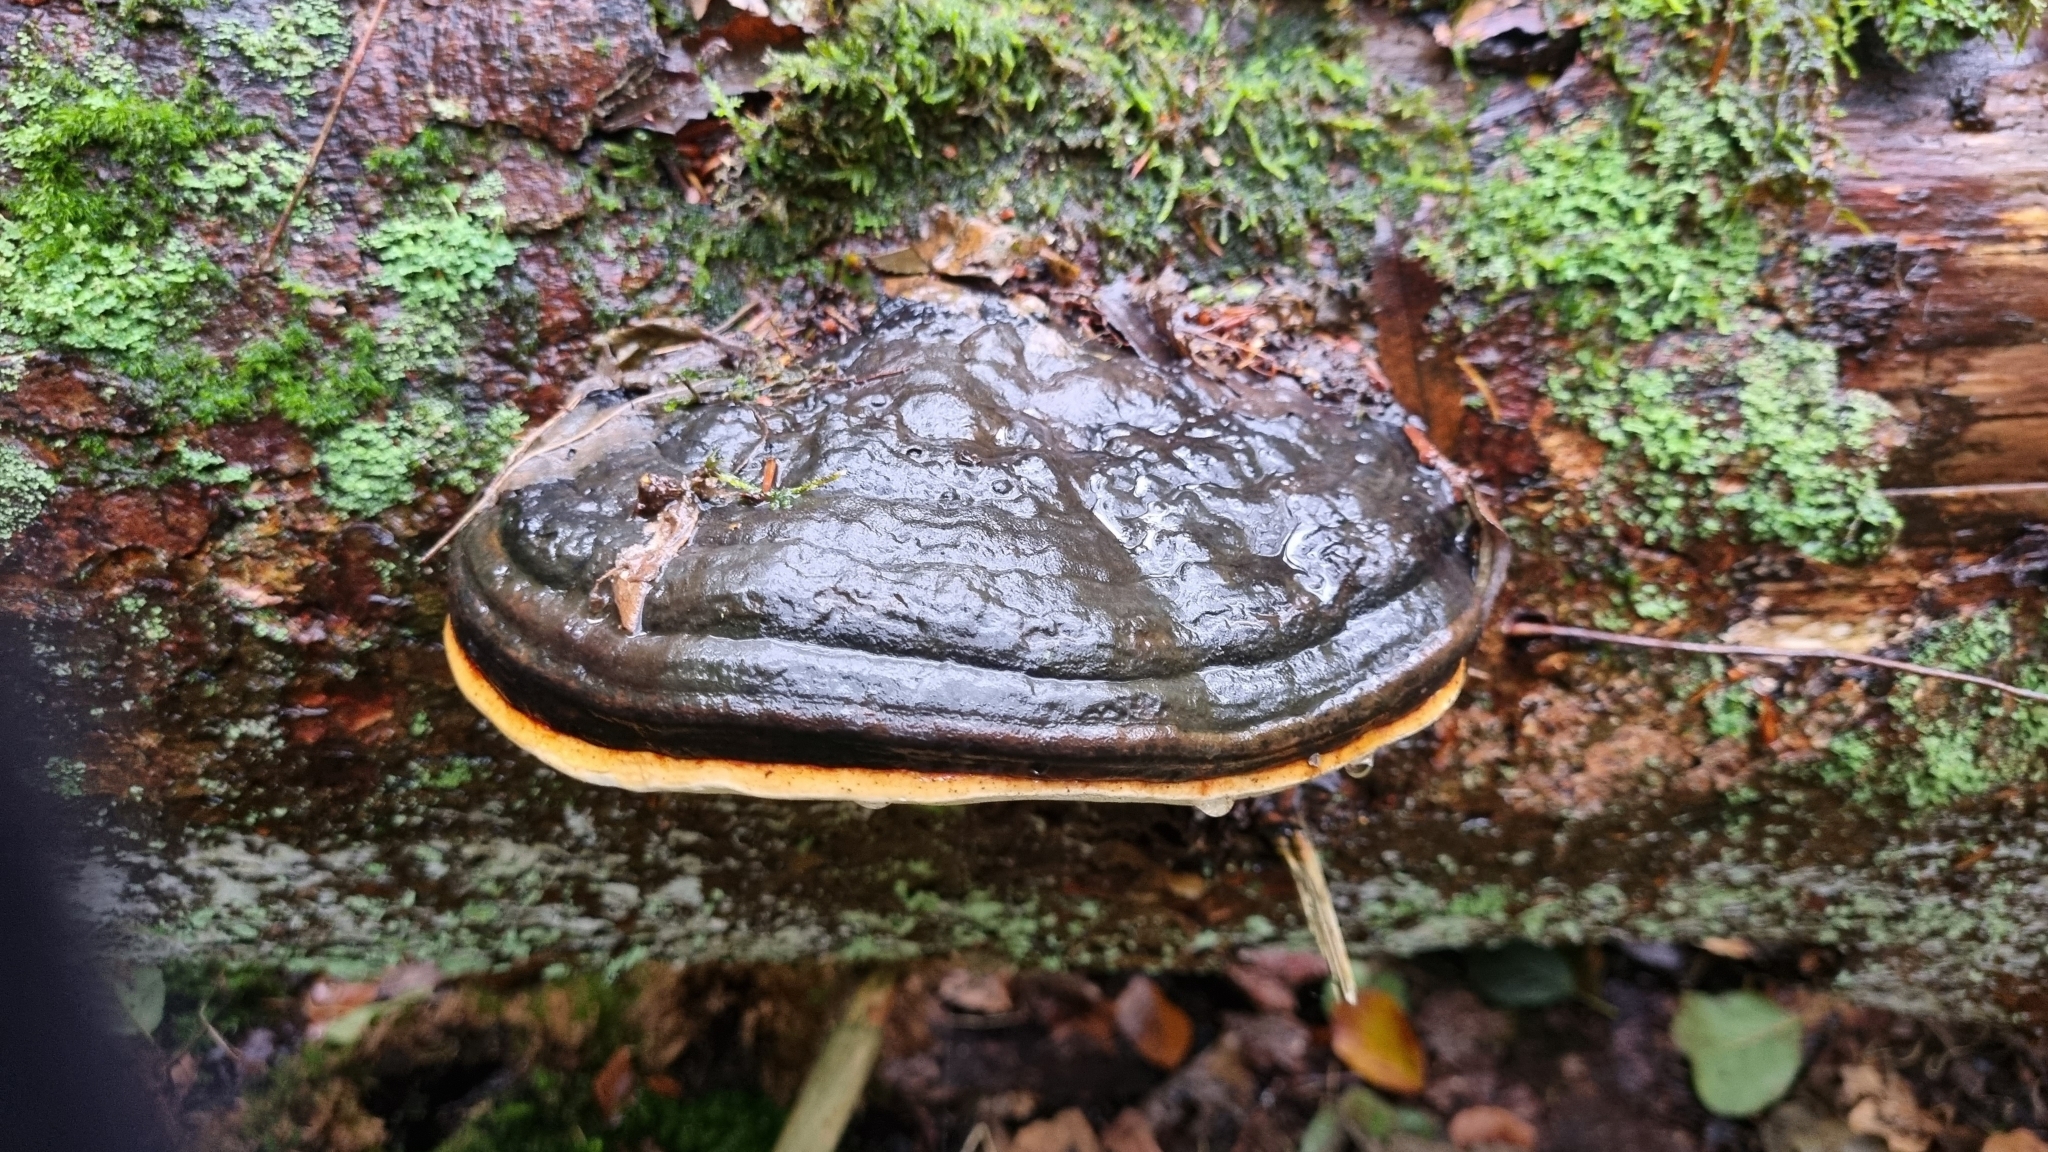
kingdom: Fungi
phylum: Basidiomycota
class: Agaricomycetes
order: Polyporales
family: Fomitopsidaceae
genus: Fomitopsis
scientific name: Fomitopsis pinicola
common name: Red-belted bracket
